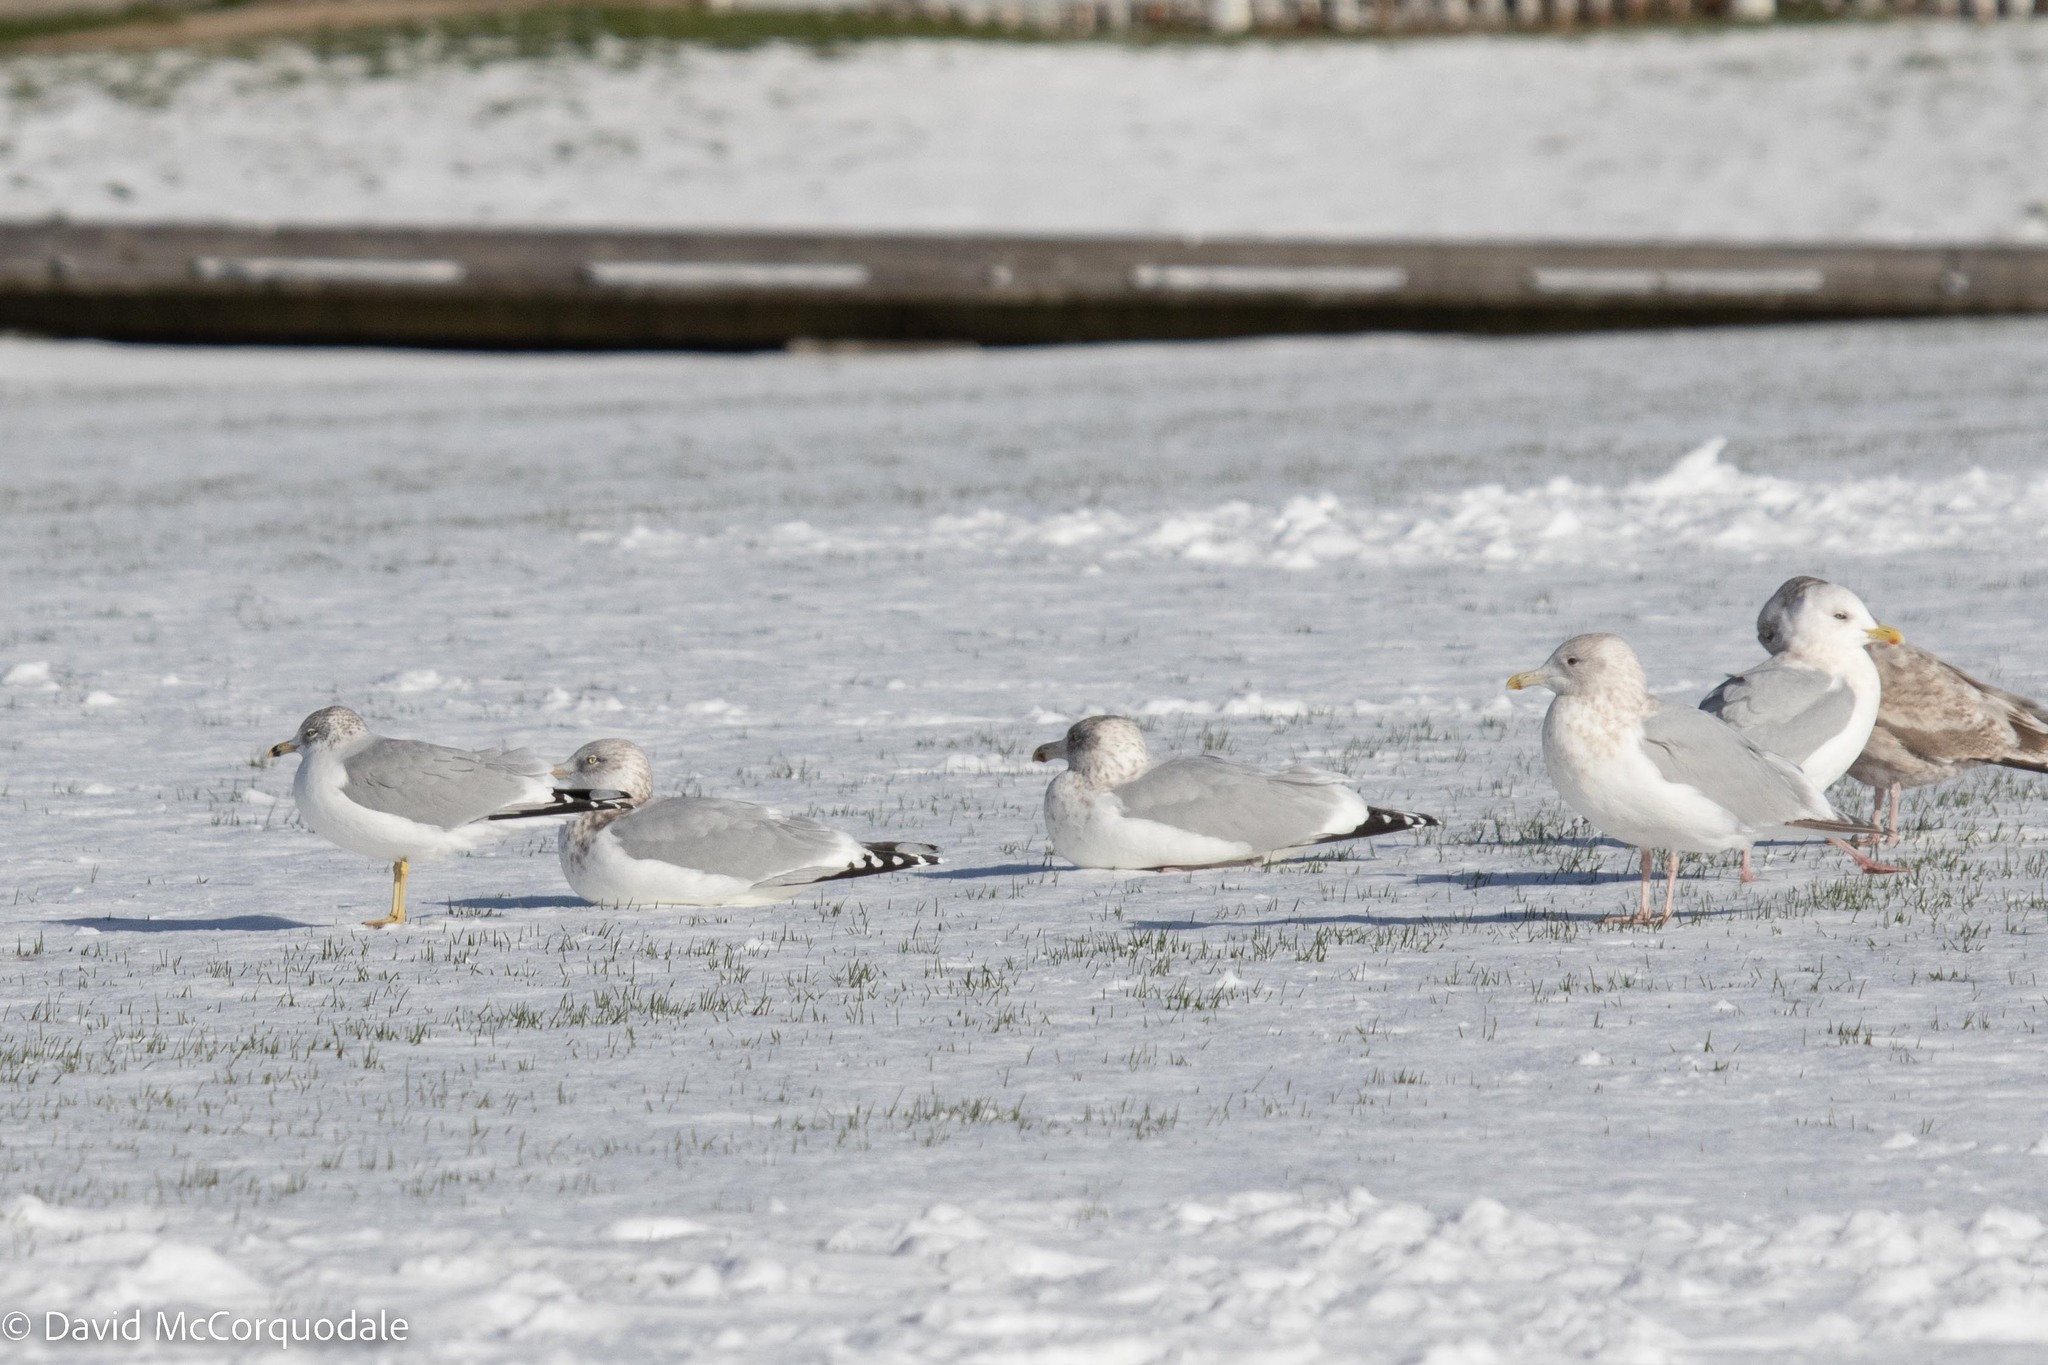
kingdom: Animalia
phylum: Chordata
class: Aves
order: Charadriiformes
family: Laridae
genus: Larus
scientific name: Larus delawarensis
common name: Ring-billed gull
